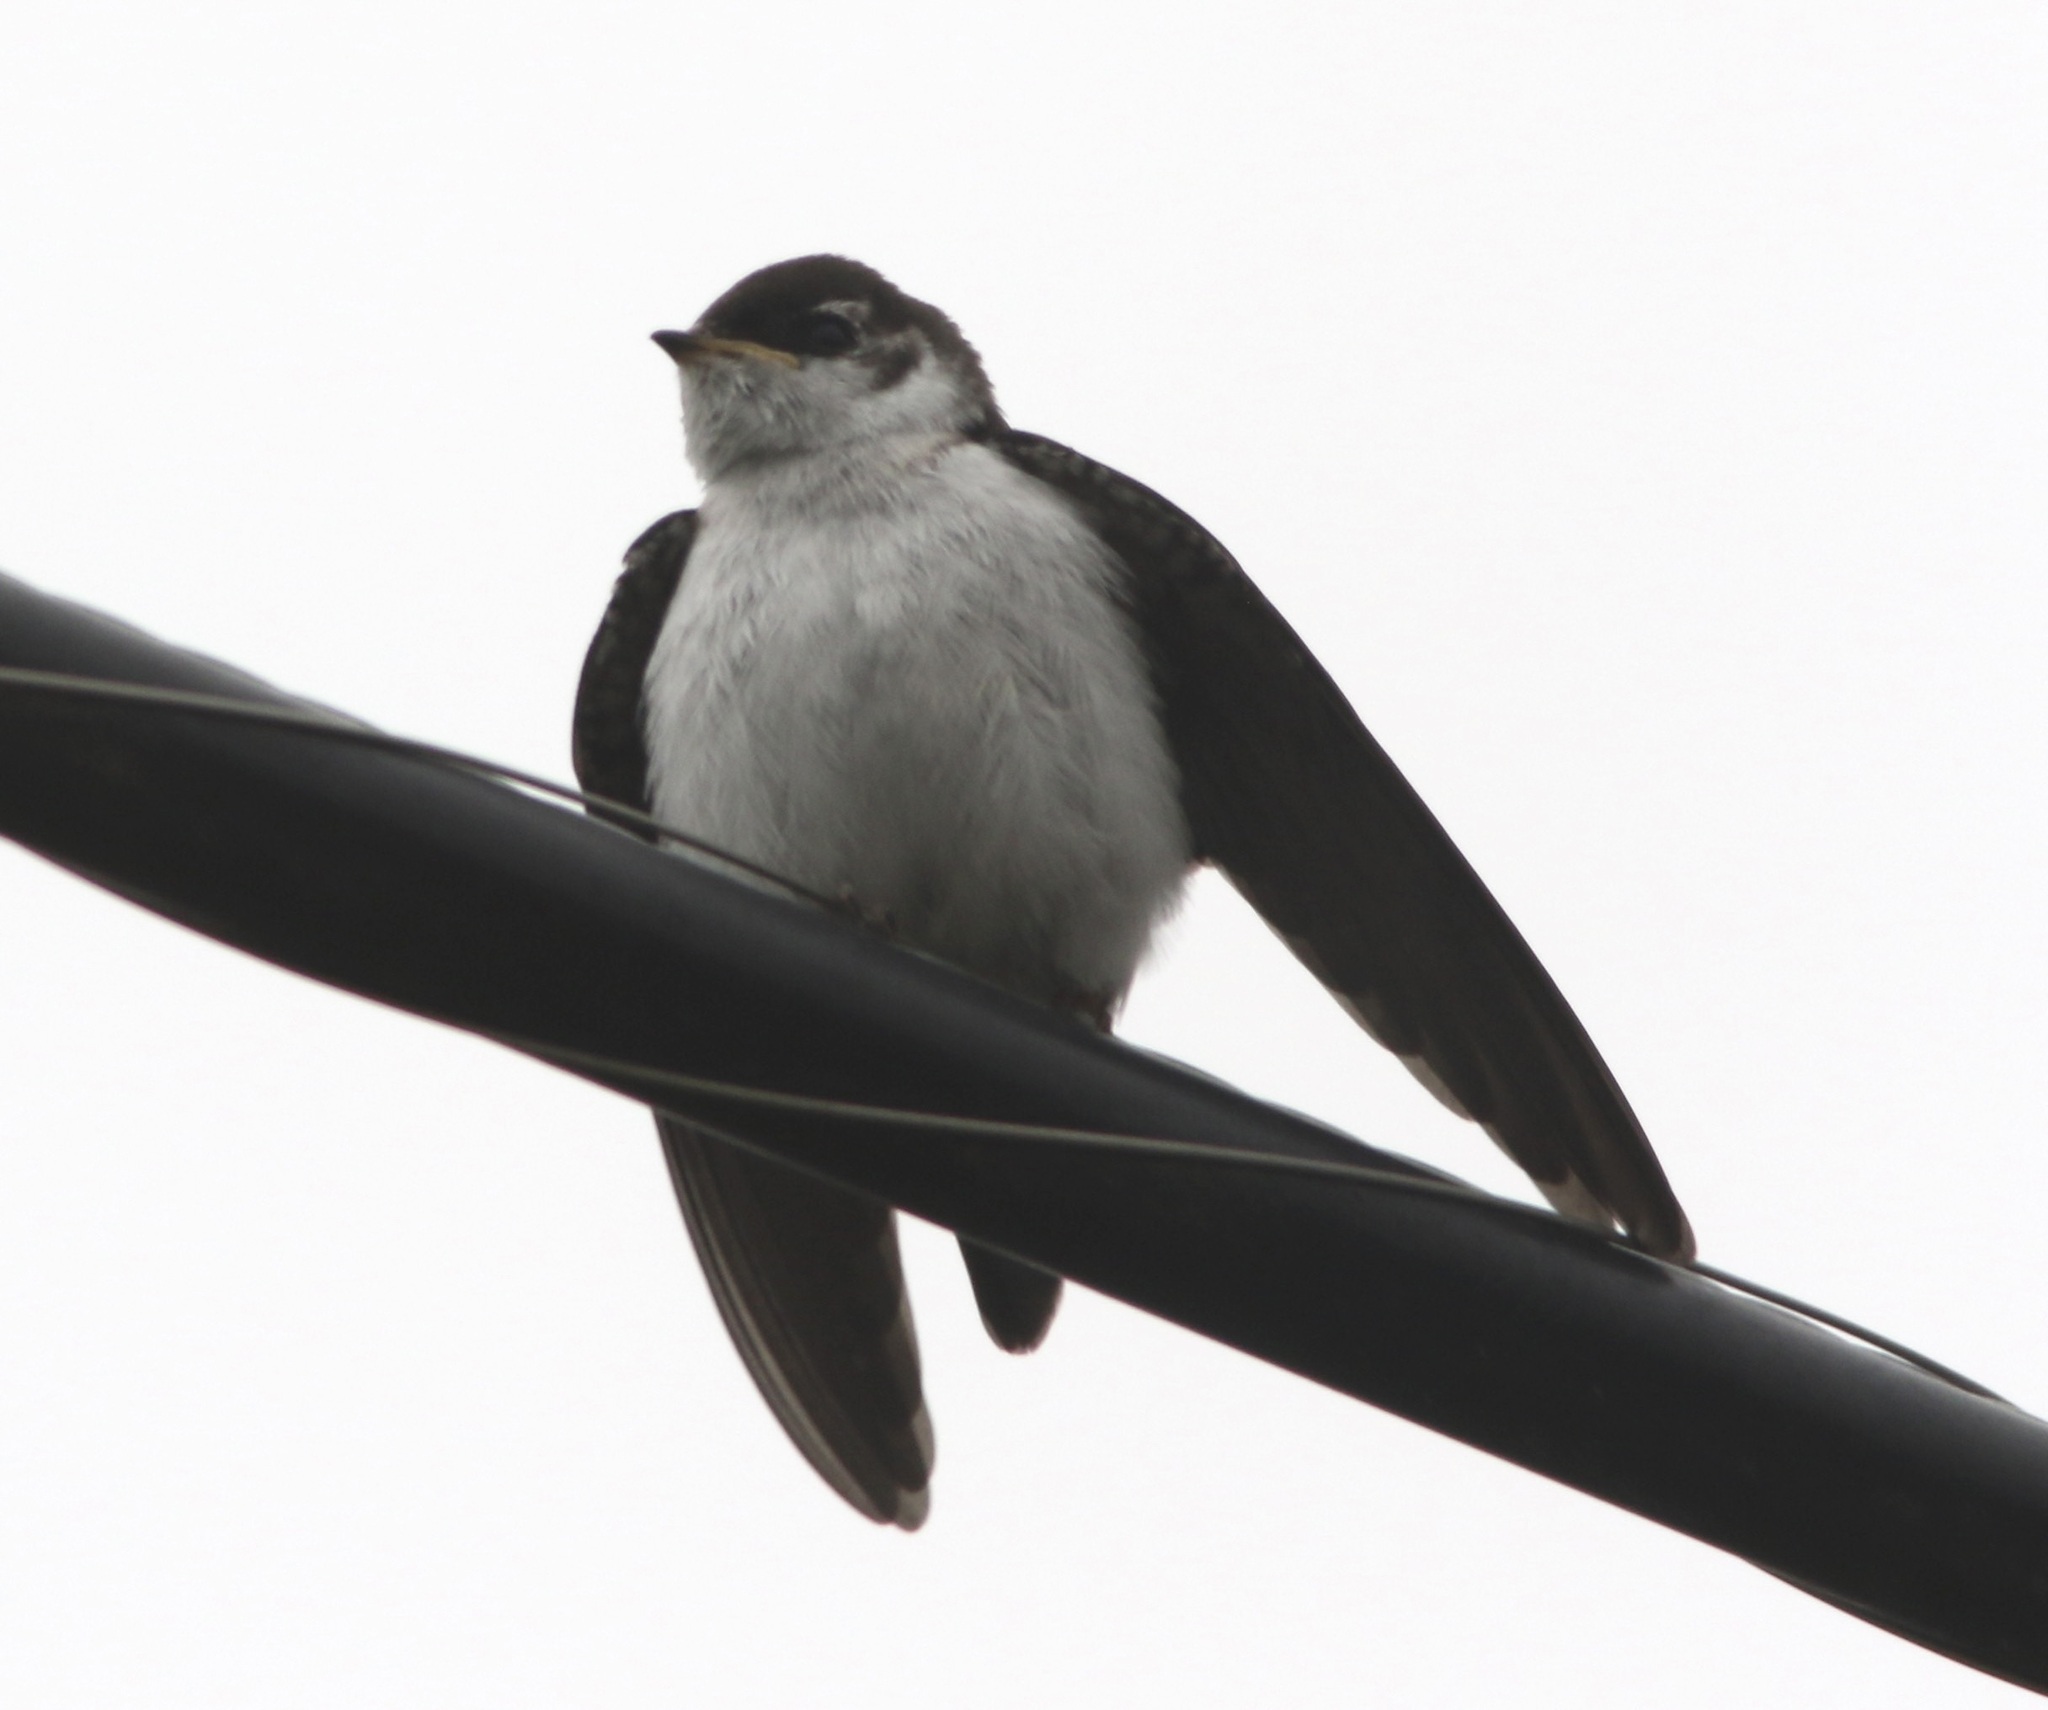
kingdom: Animalia
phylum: Chordata
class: Aves
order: Passeriformes
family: Hirundinidae
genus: Tachycineta
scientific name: Tachycineta thalassina
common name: Violet-green swallow
